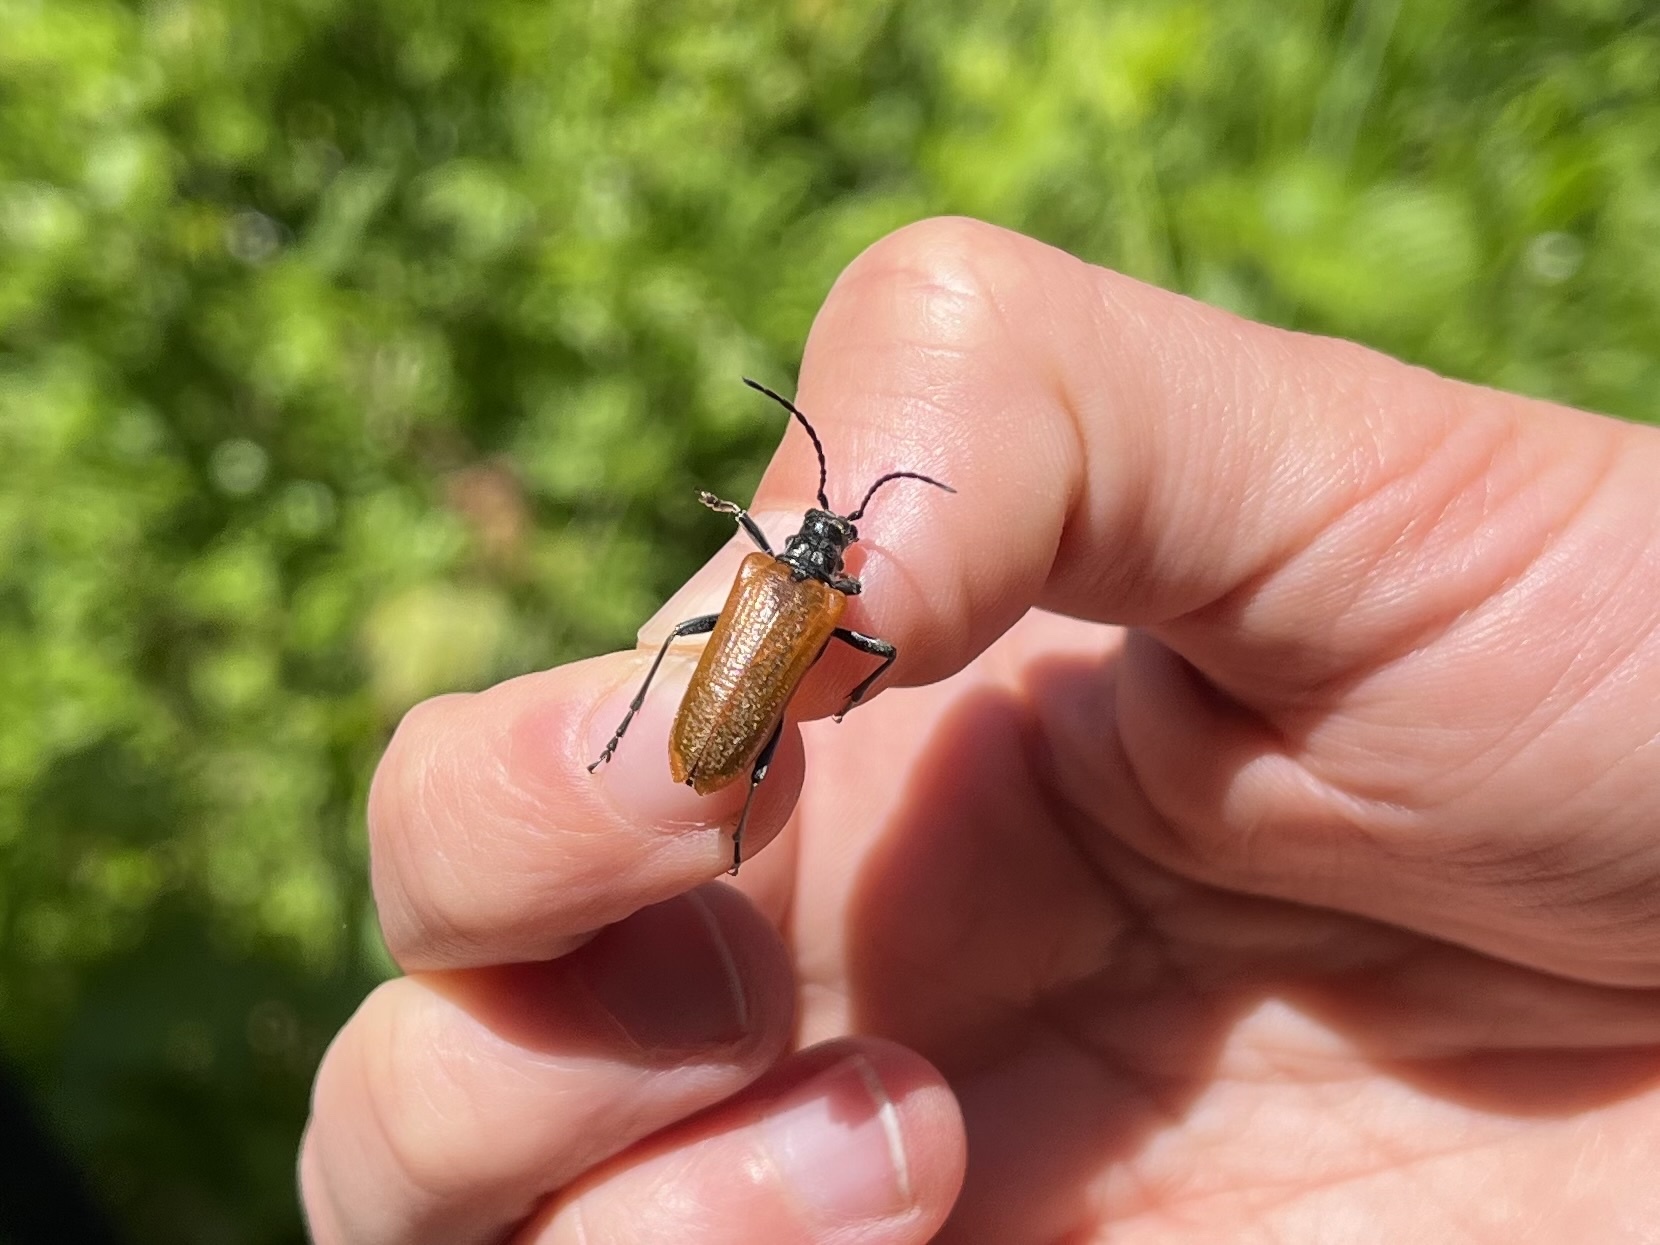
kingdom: Animalia
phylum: Arthropoda
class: Insecta
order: Coleoptera
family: Cerambycidae
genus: Stenocorus
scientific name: Stenocorus quercus
